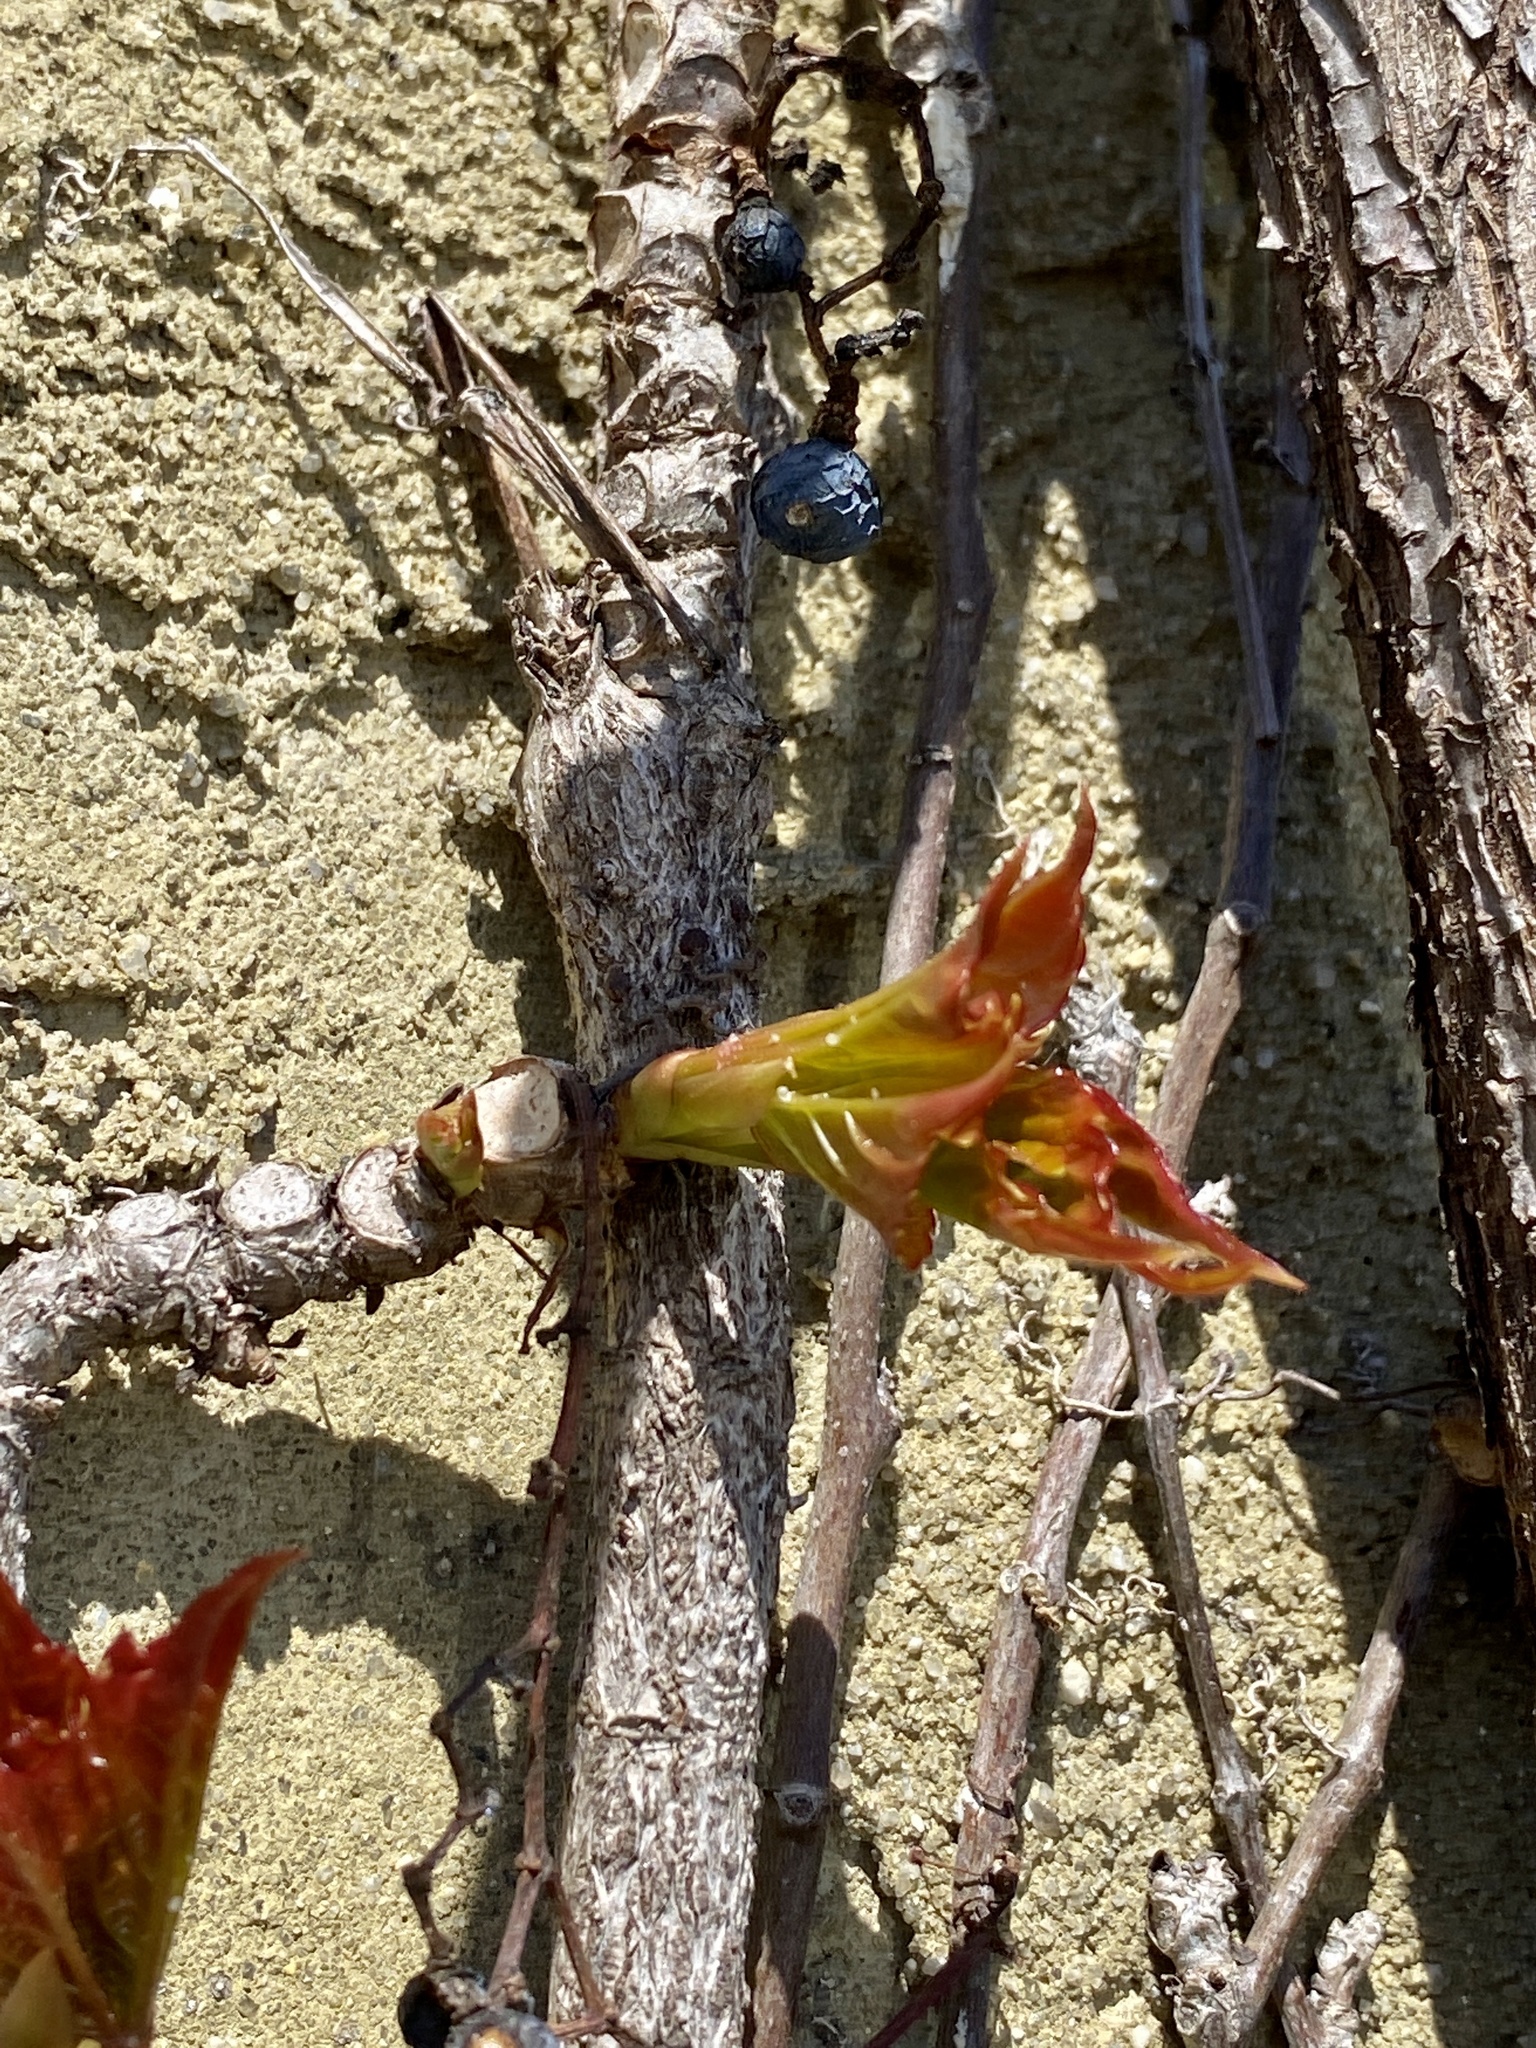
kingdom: Plantae
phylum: Tracheophyta
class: Magnoliopsida
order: Vitales
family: Vitaceae
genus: Parthenocissus
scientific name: Parthenocissus tricuspidata
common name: Boston ivy
